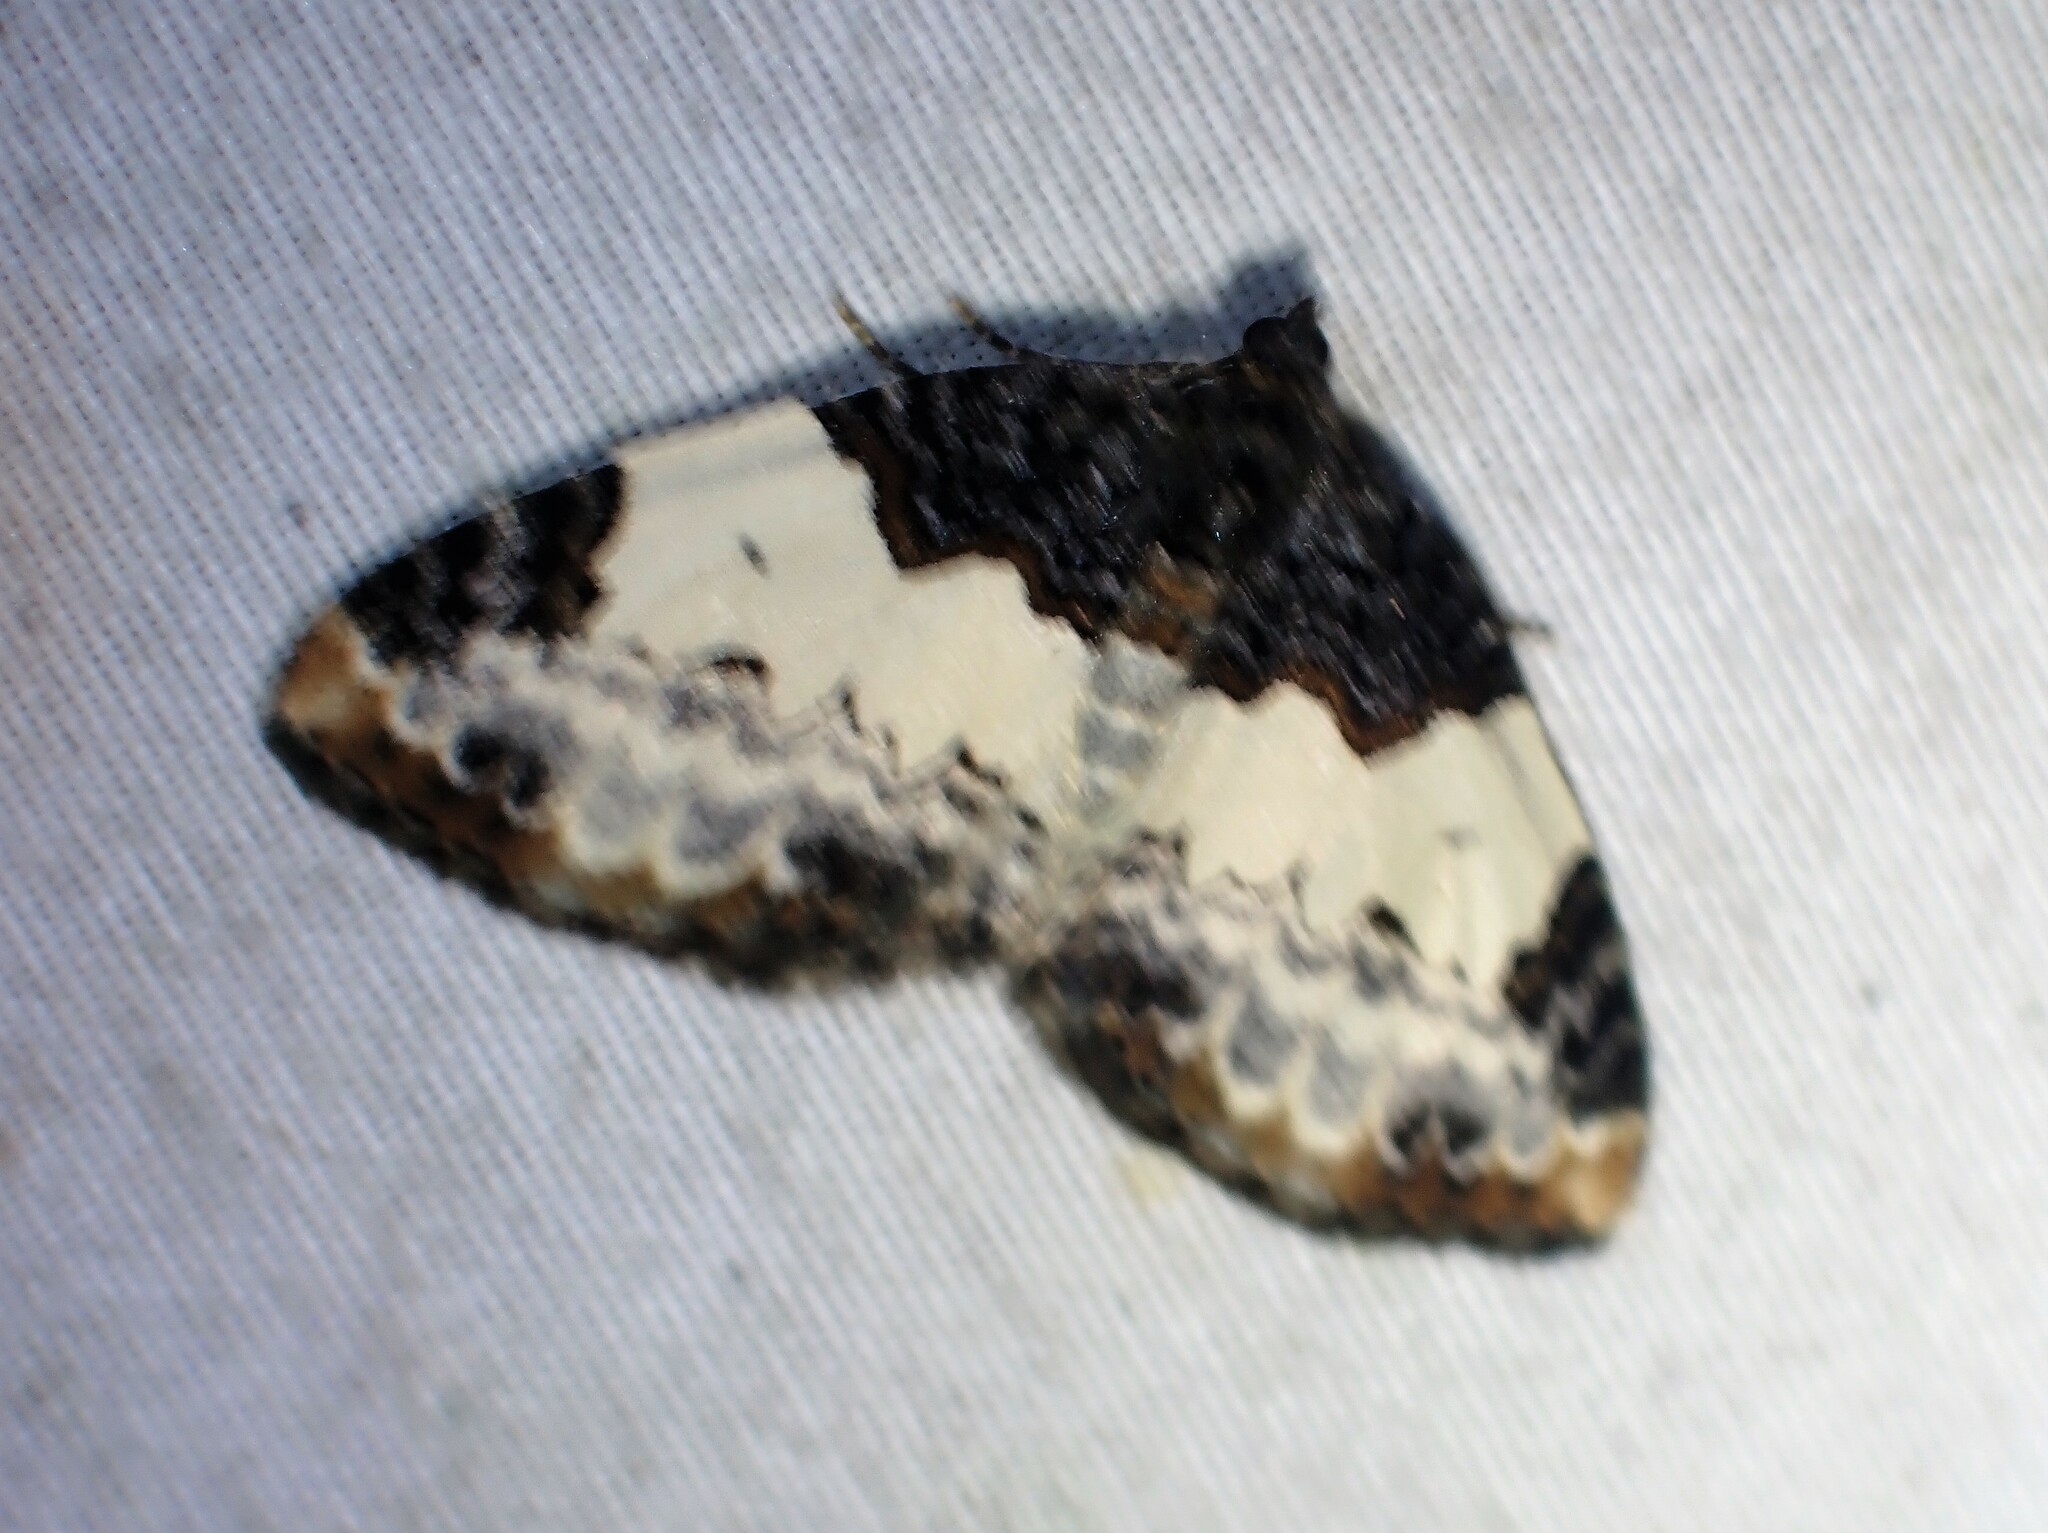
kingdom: Animalia
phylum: Arthropoda
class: Insecta
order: Lepidoptera
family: Geometridae
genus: Mesoleuca
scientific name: Mesoleuca ruficillata
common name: White-ribboned carpet moth
